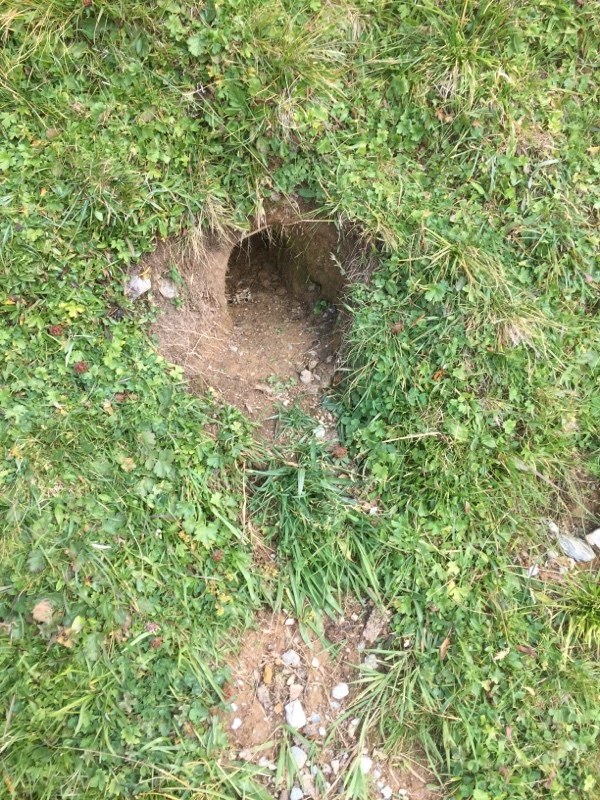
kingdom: Animalia
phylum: Chordata
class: Mammalia
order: Rodentia
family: Sciuridae
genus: Marmota
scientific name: Marmota marmota
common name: Alpine marmot
